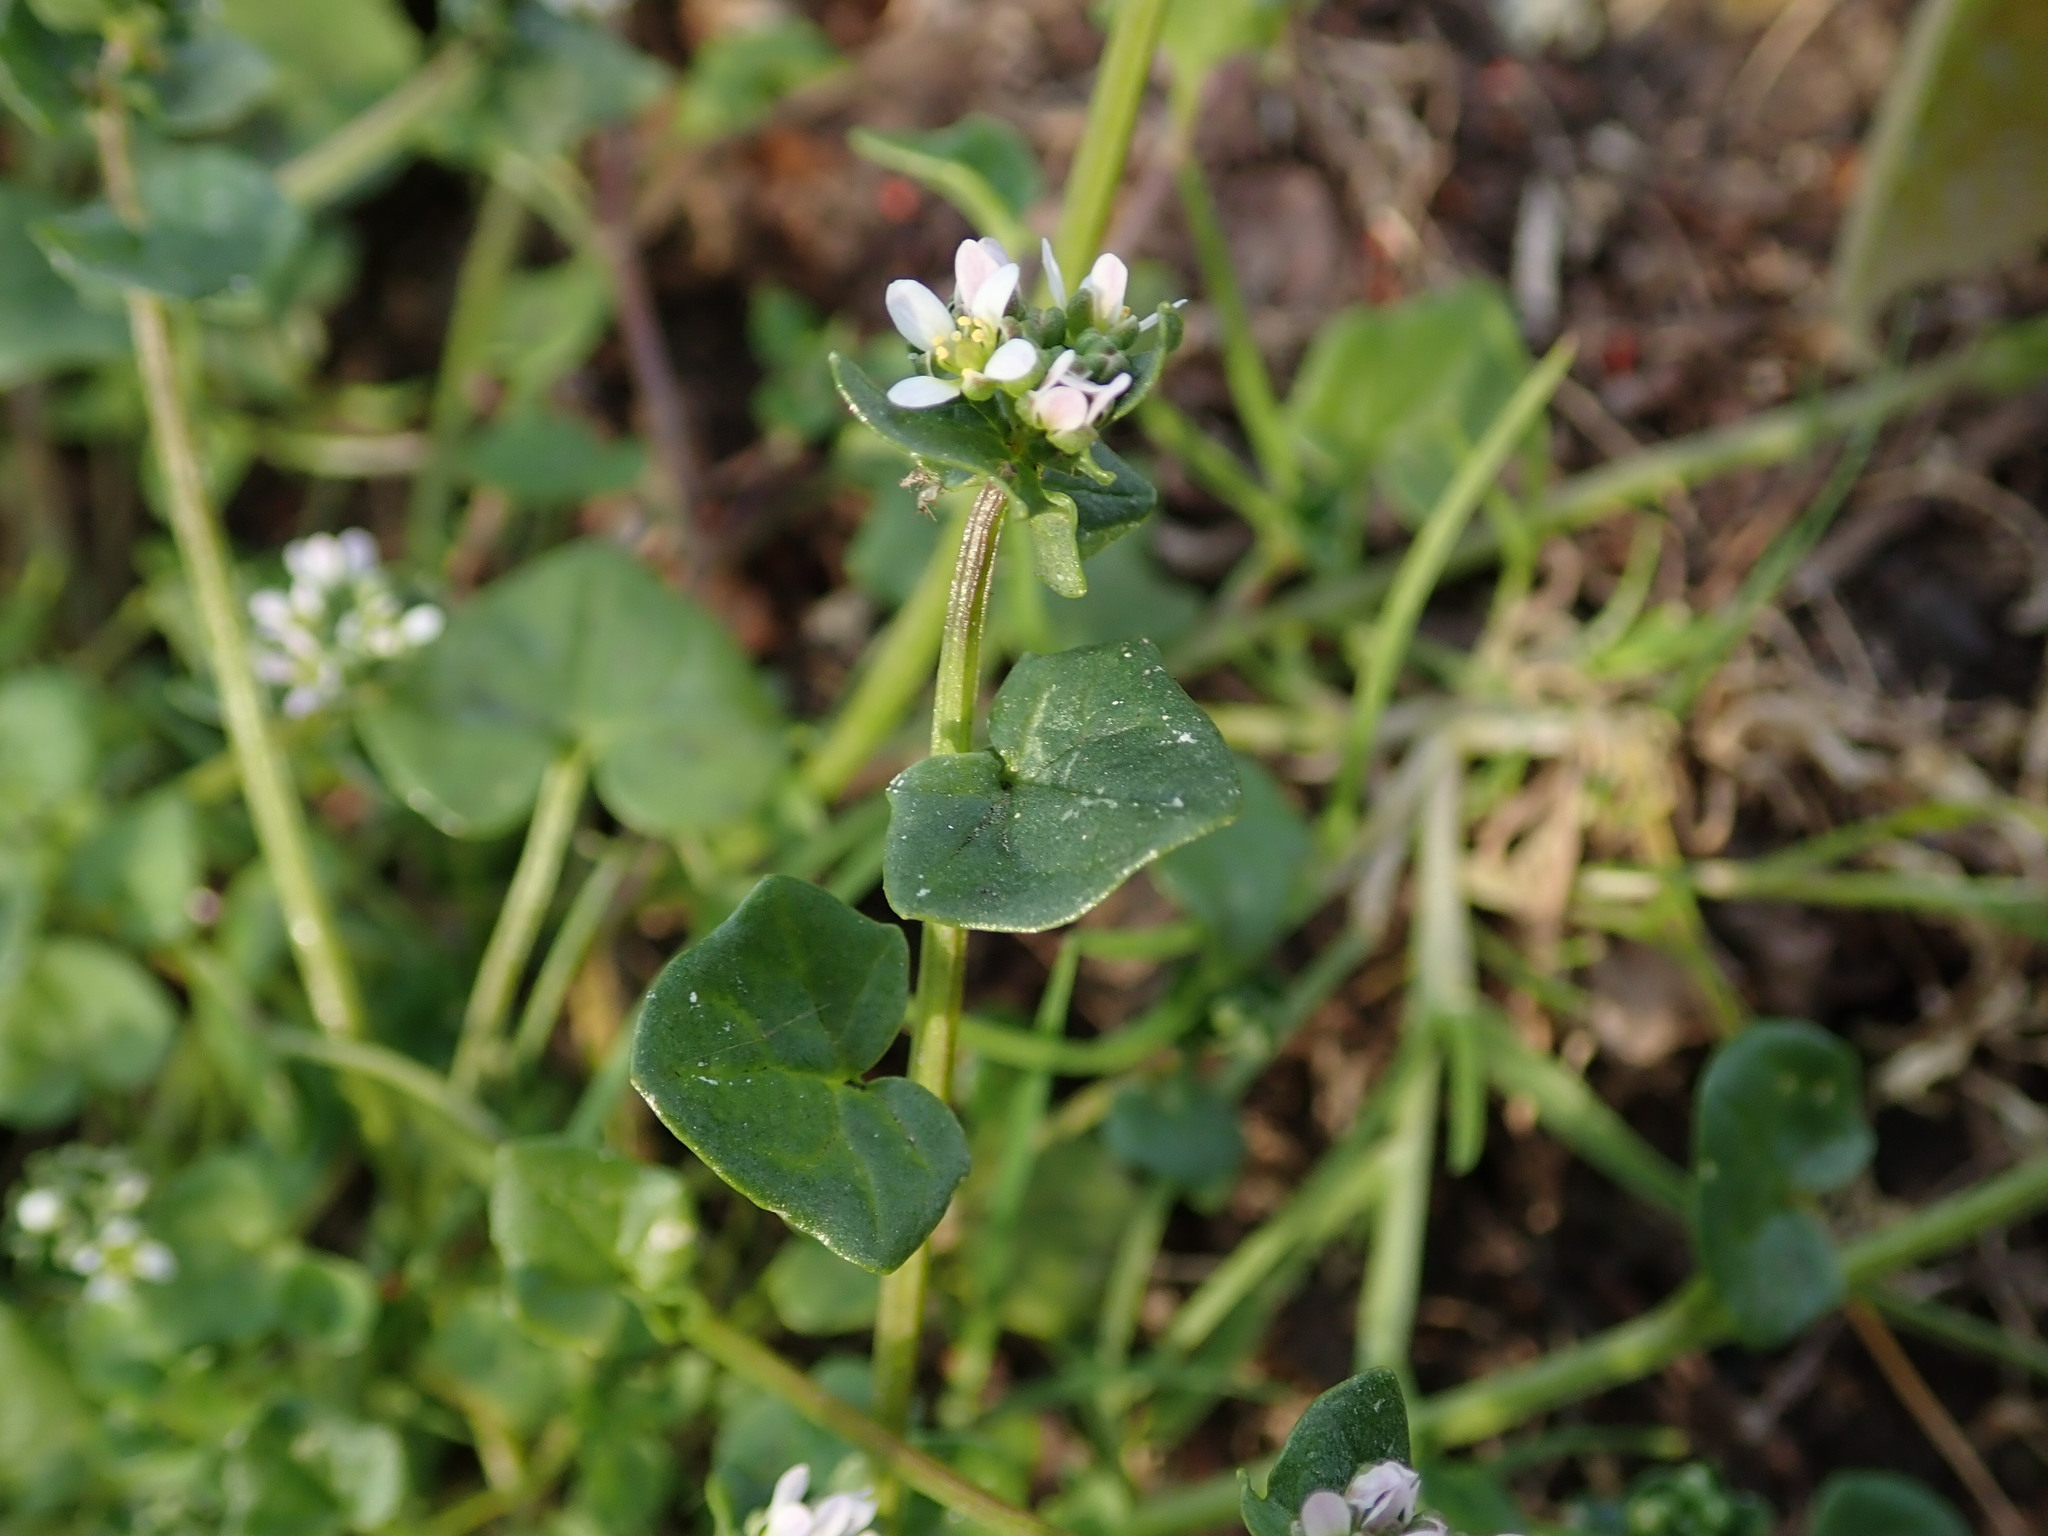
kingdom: Plantae
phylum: Tracheophyta
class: Magnoliopsida
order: Brassicales
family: Brassicaceae
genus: Cochlearia
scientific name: Cochlearia danica
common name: Early scurvygrass
